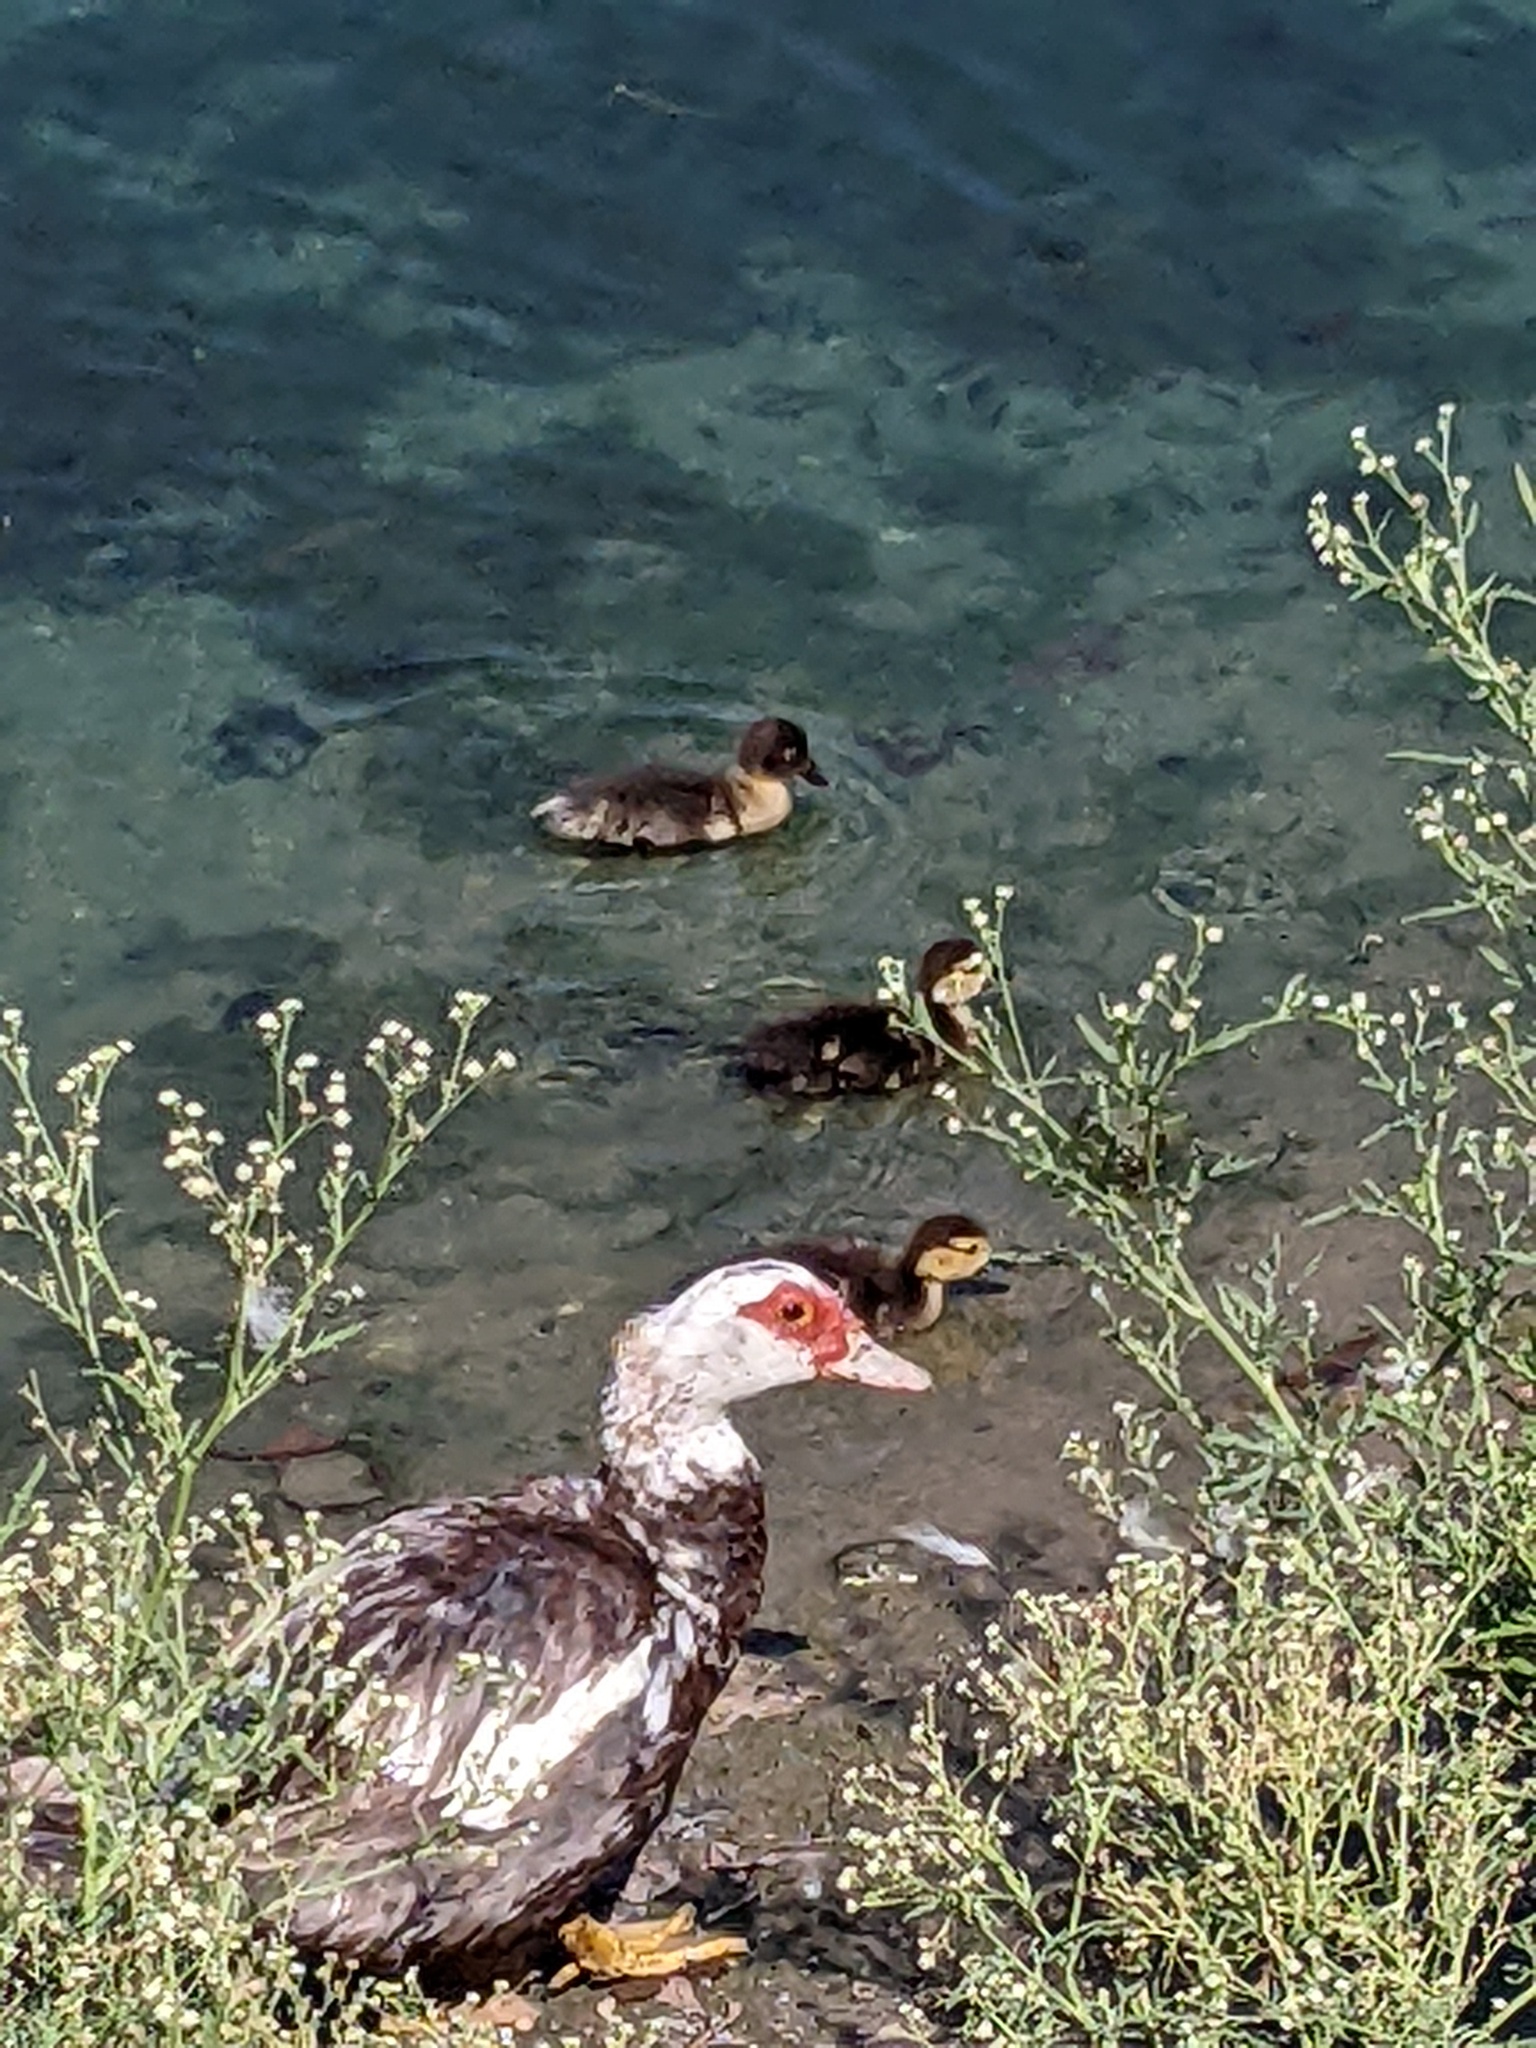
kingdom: Animalia
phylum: Chordata
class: Aves
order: Anseriformes
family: Anatidae
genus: Cairina
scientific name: Cairina moschata
